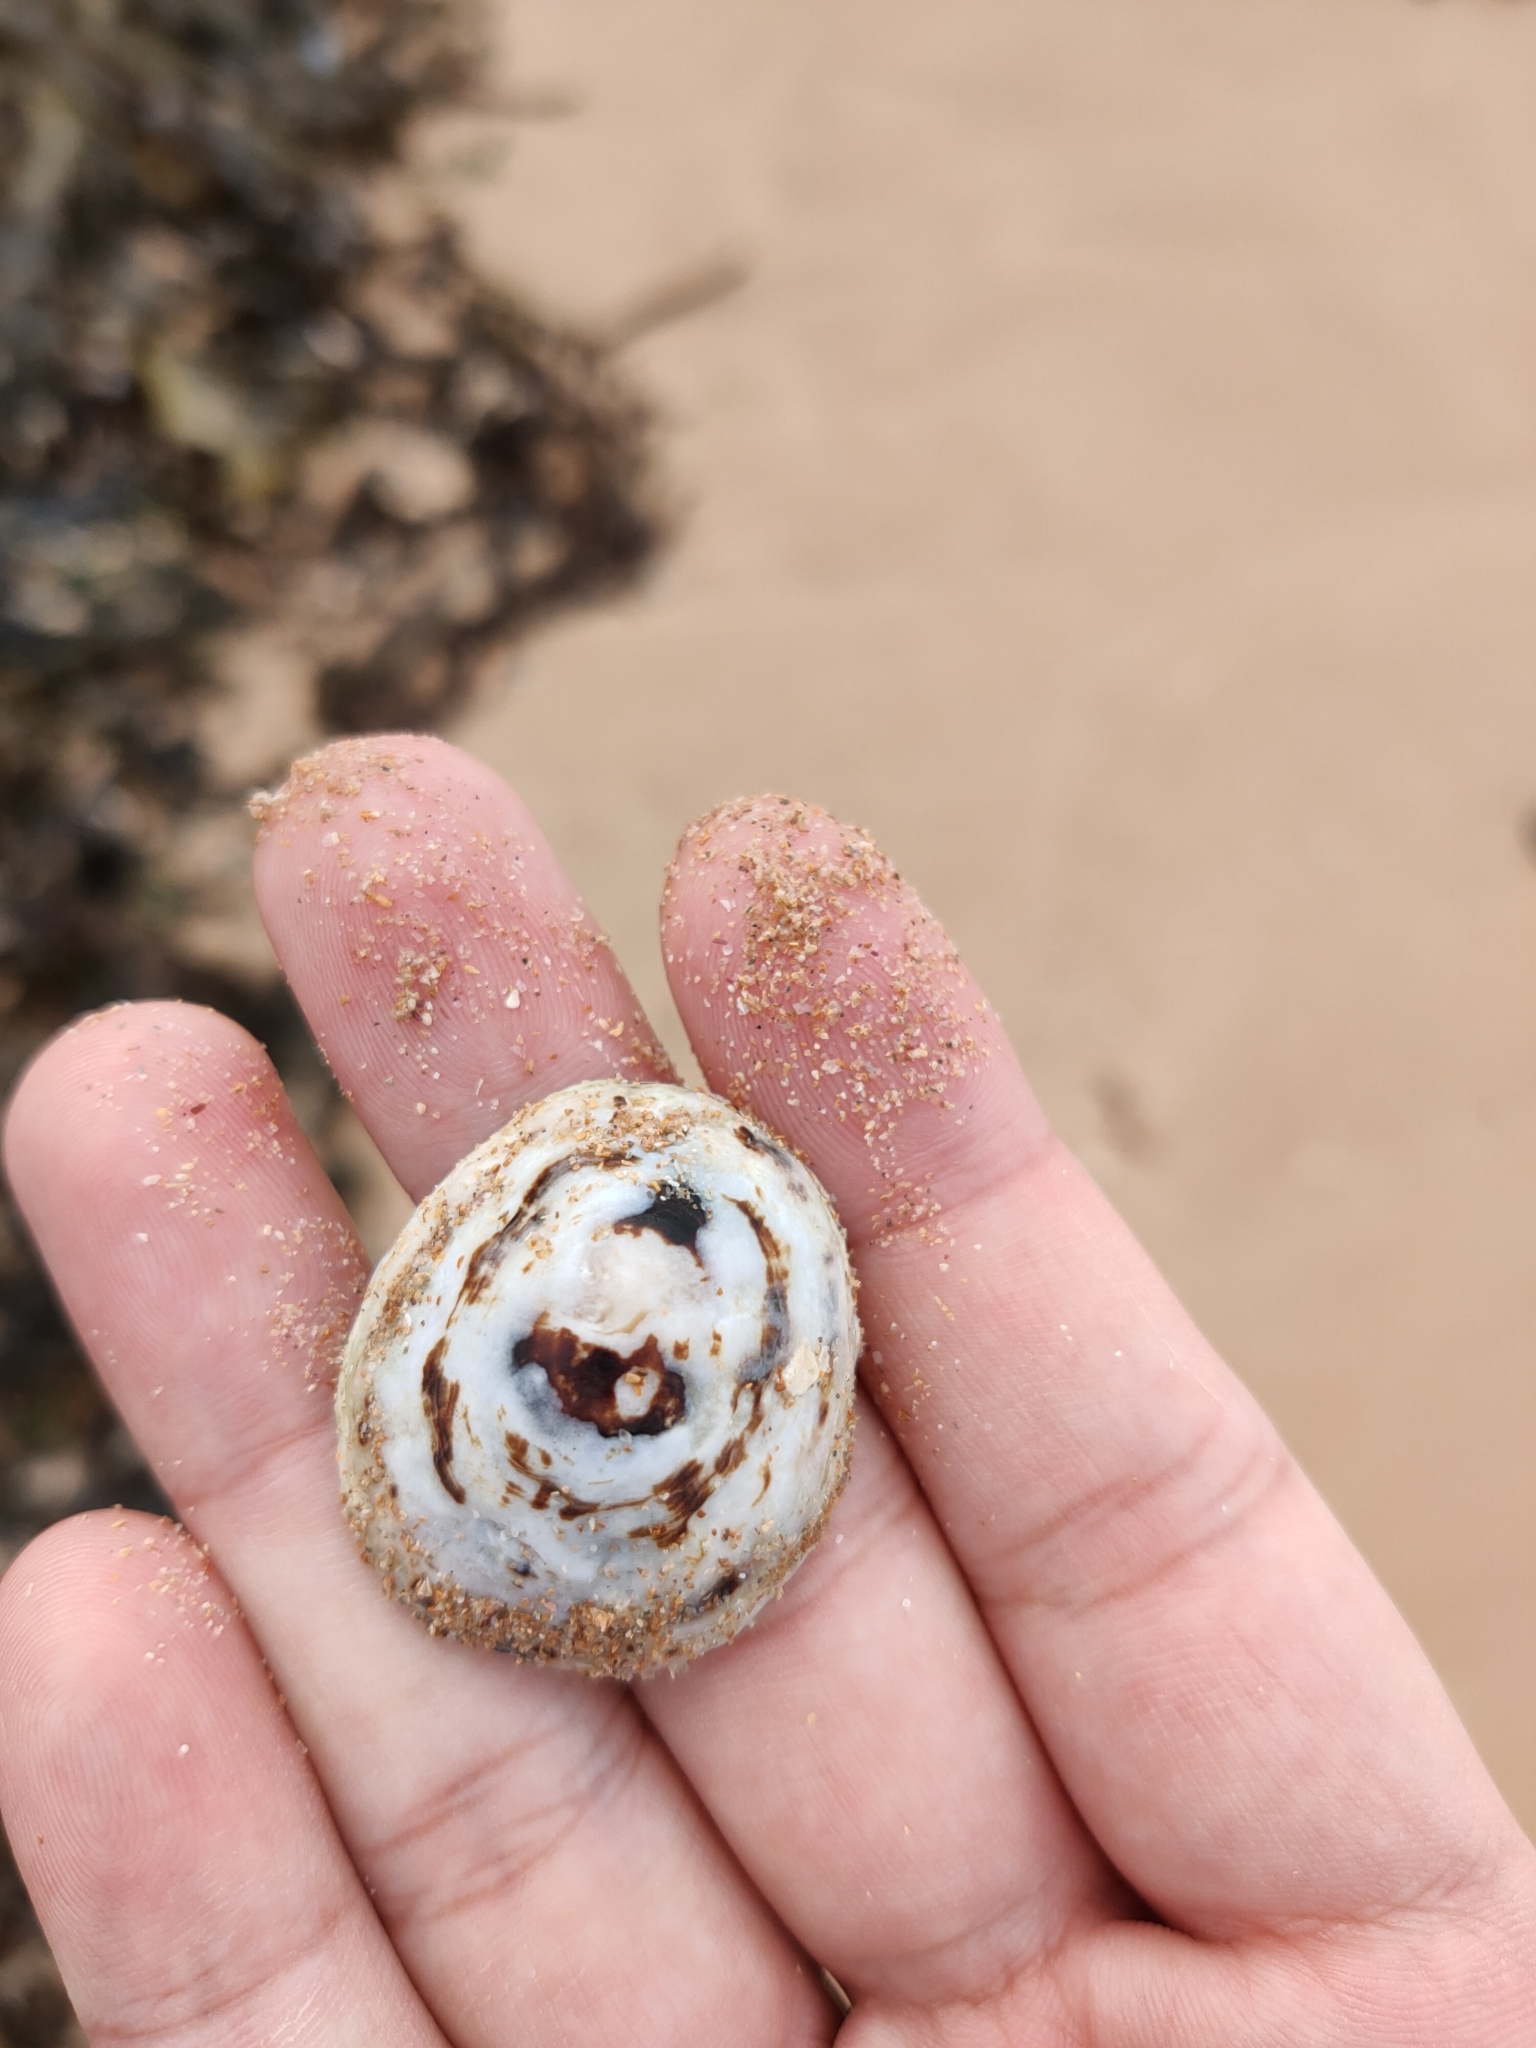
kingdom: Animalia
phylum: Mollusca
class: Gastropoda
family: Nacellidae
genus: Cellana
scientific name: Cellana tramoserica
